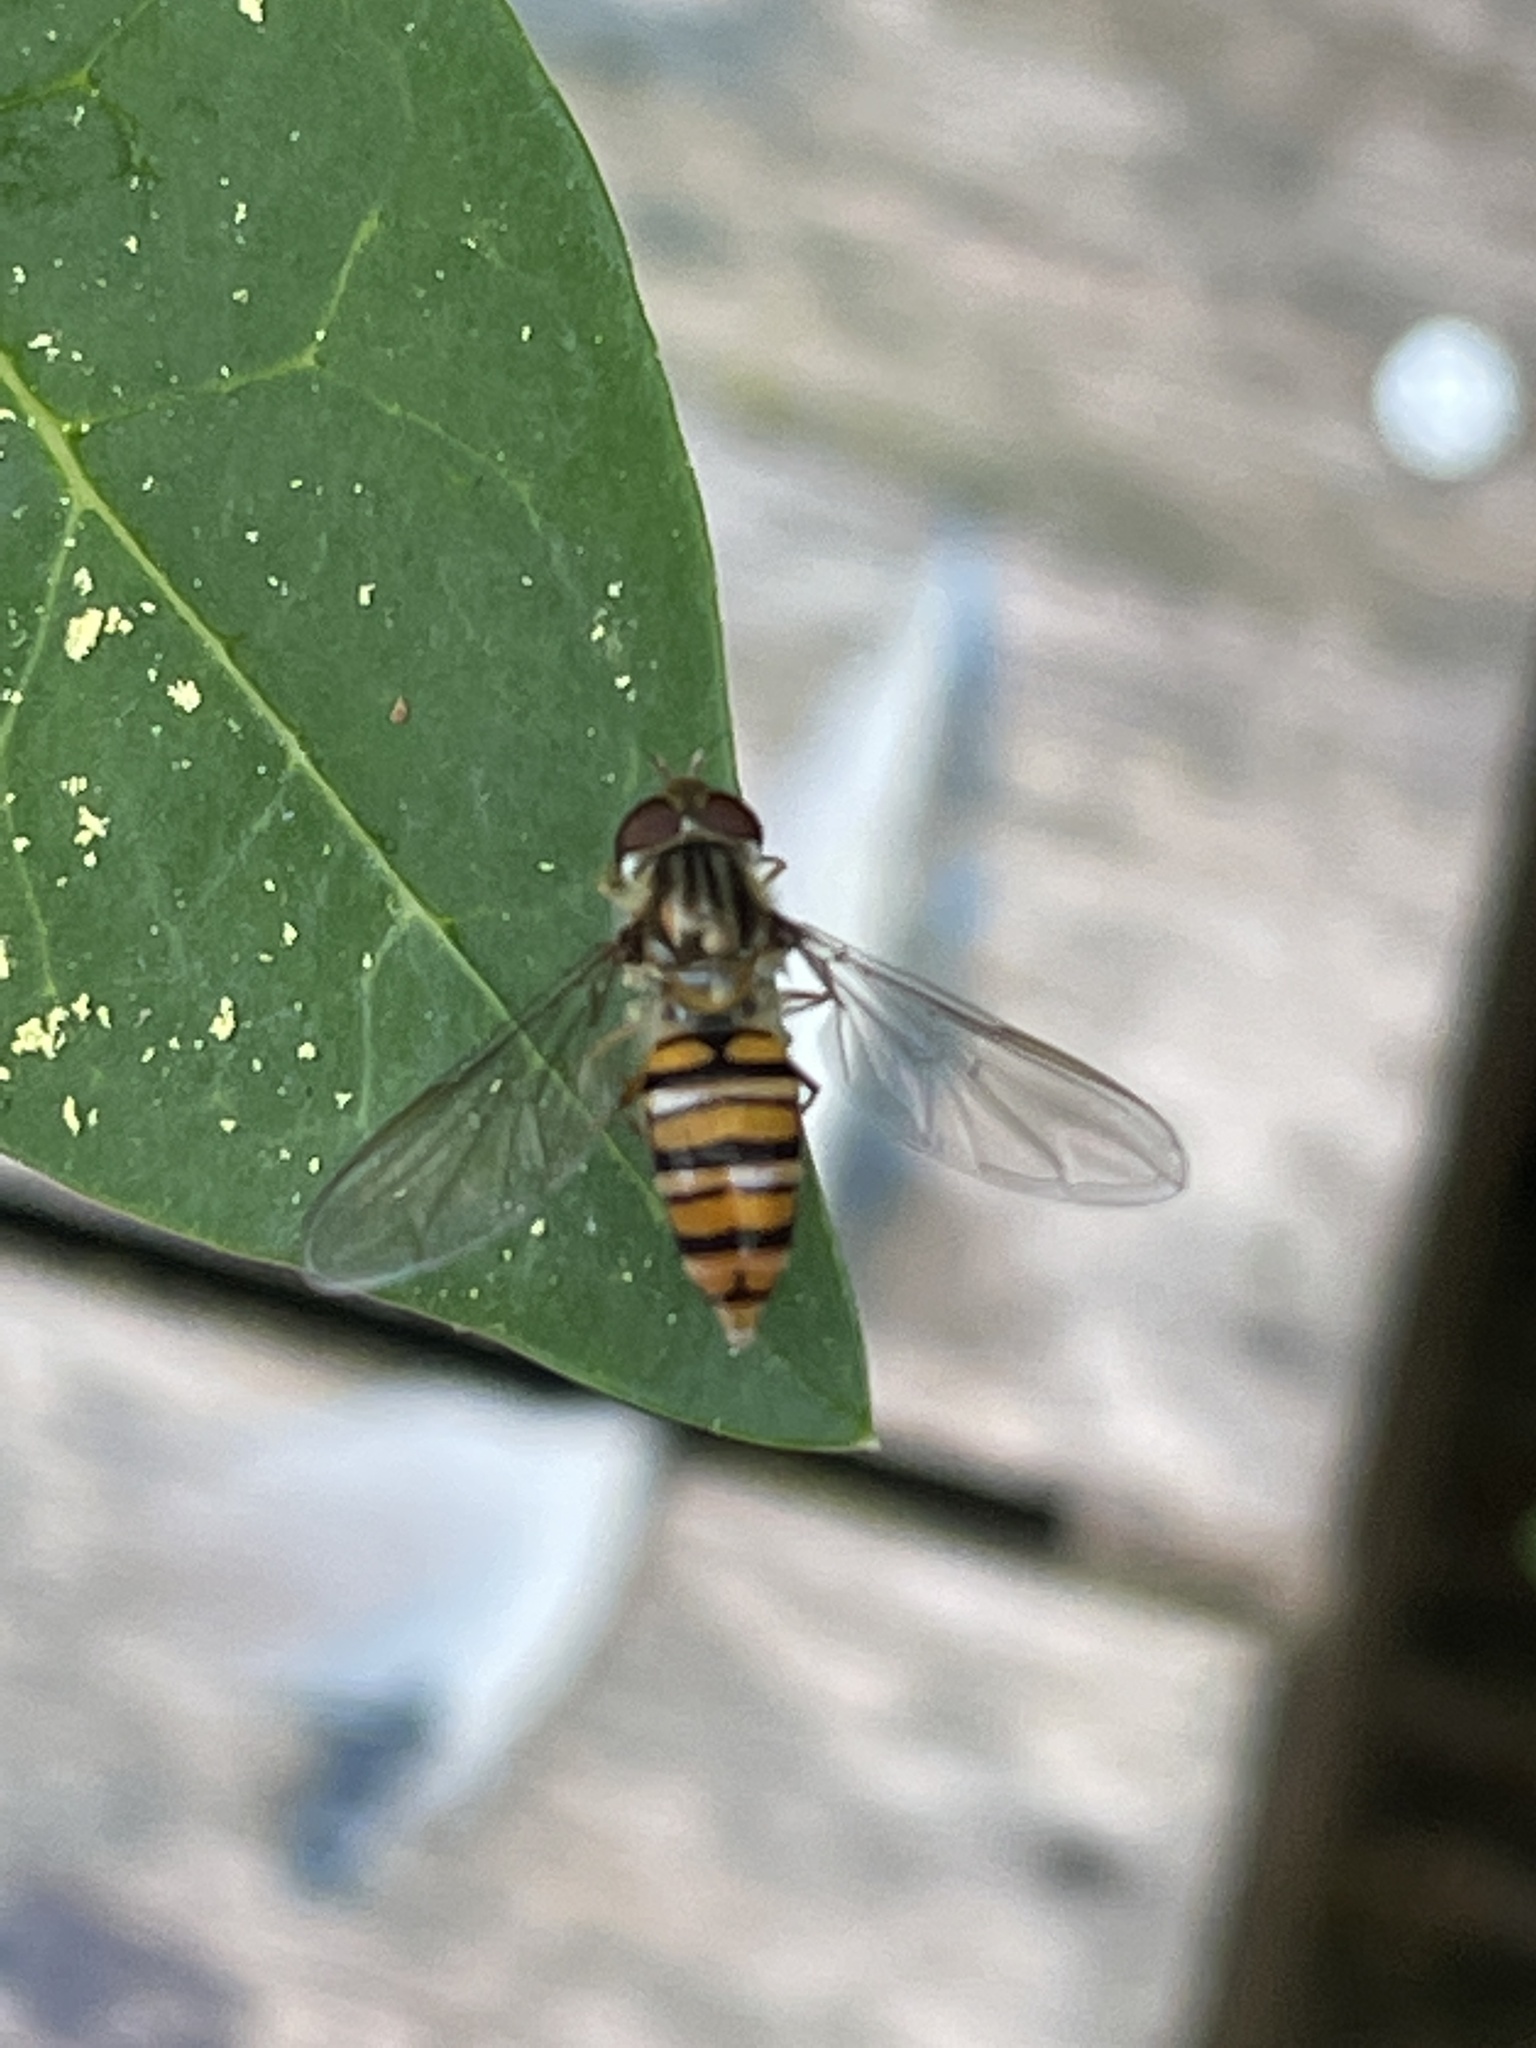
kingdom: Animalia
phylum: Arthropoda
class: Insecta
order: Diptera
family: Syrphidae
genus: Episyrphus
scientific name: Episyrphus balteatus
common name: Marmalade hoverfly
